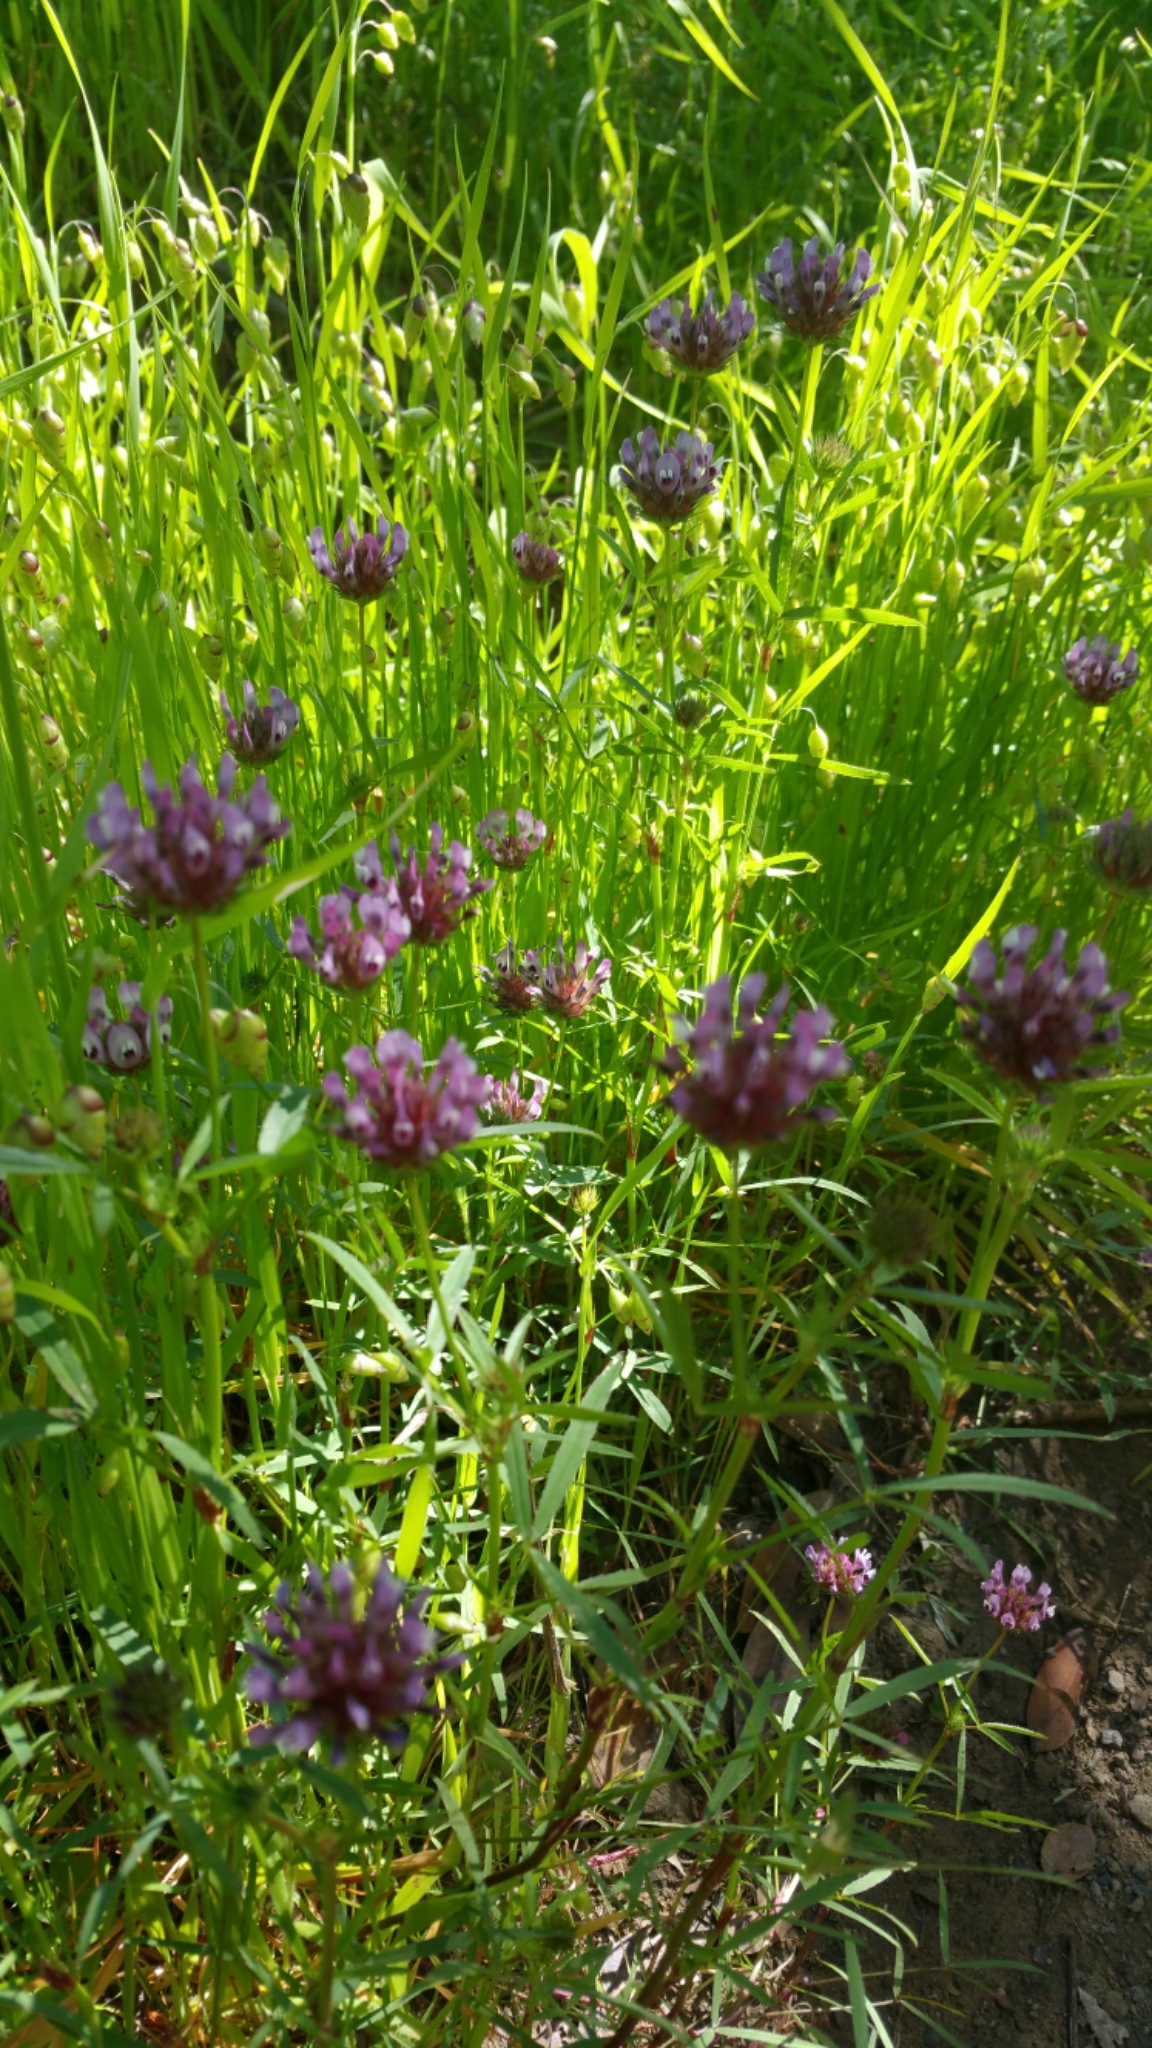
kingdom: Plantae
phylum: Tracheophyta
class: Magnoliopsida
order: Fabales
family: Fabaceae
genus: Trifolium
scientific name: Trifolium willdenovii
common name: Tomcat clover
